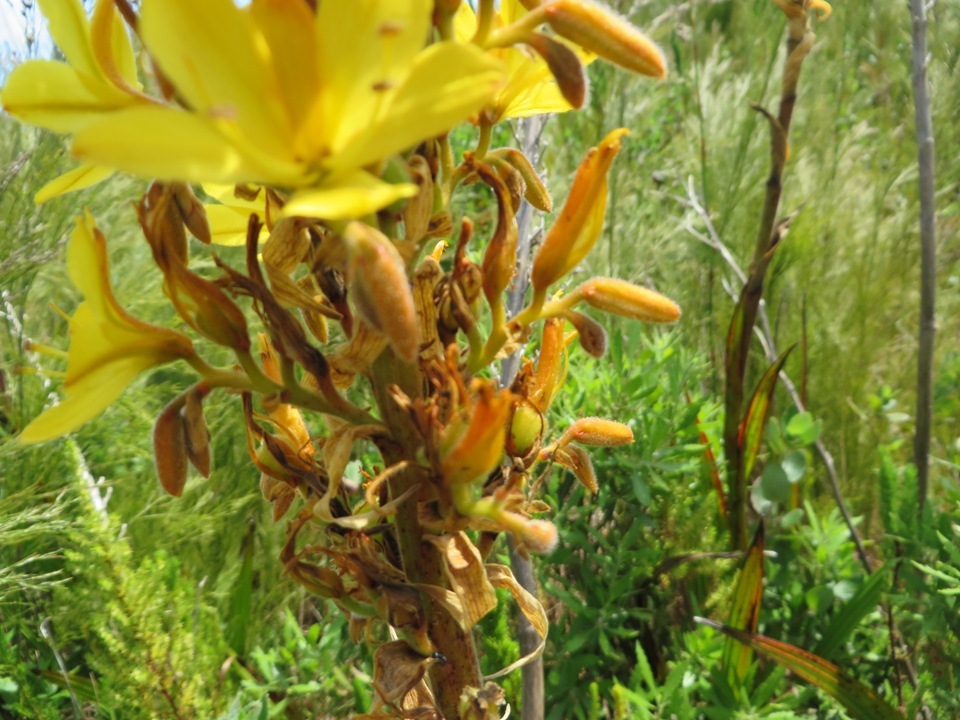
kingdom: Plantae
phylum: Tracheophyta
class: Liliopsida
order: Commelinales
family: Haemodoraceae
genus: Wachendorfia
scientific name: Wachendorfia thyrsiflora
